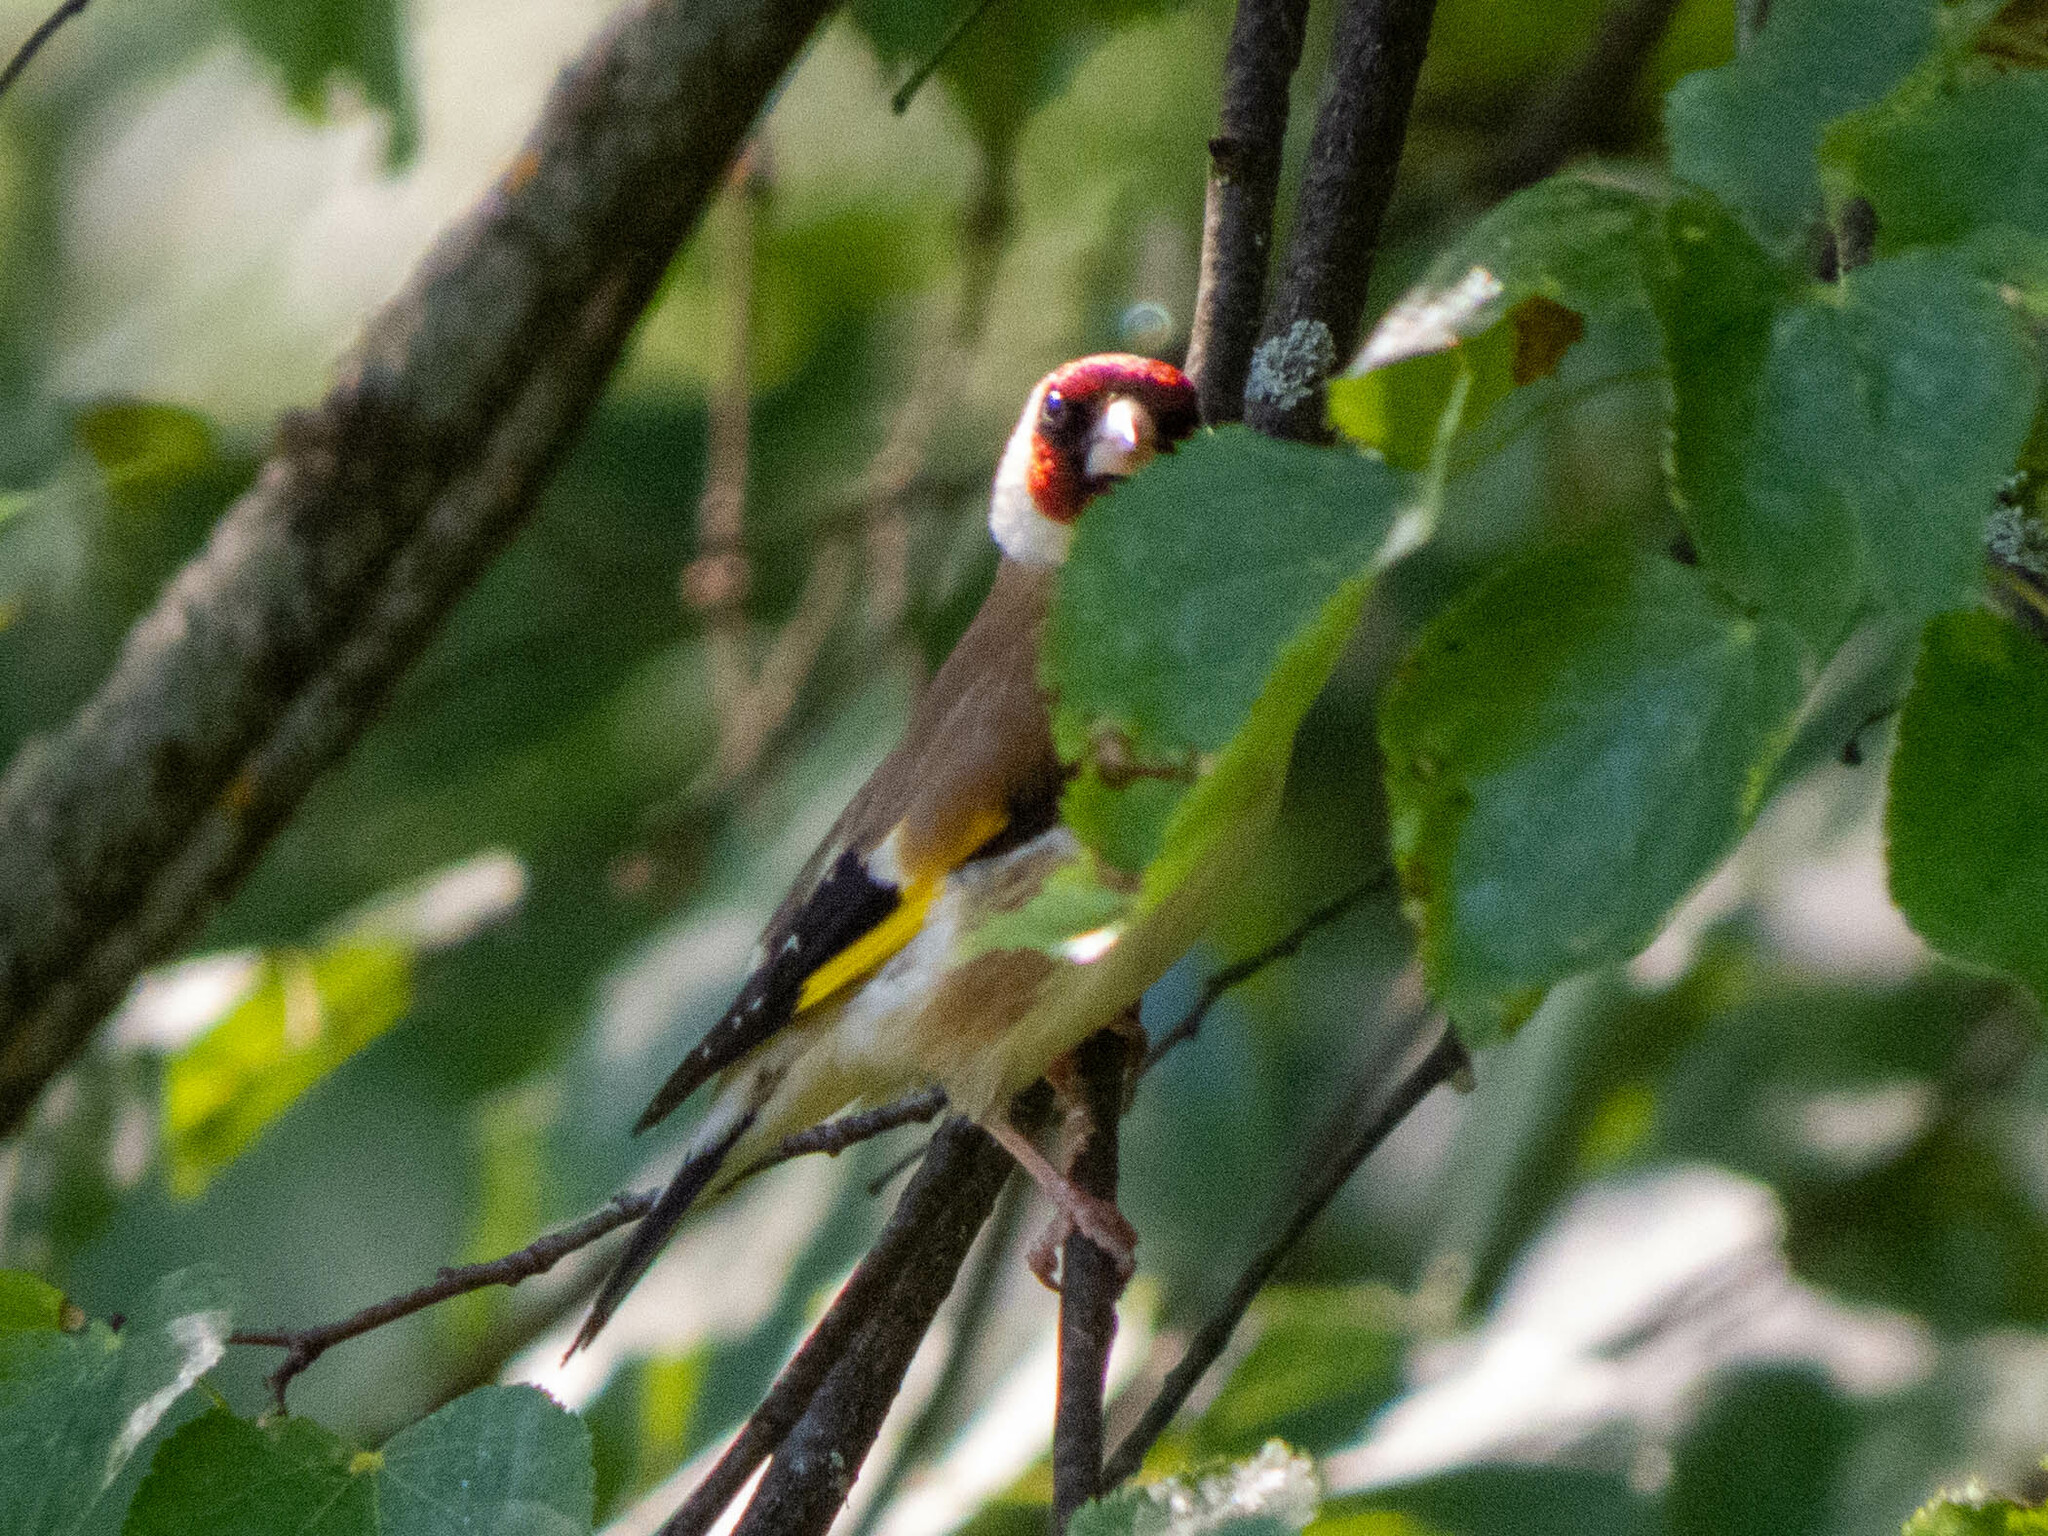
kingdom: Animalia
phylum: Chordata
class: Aves
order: Passeriformes
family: Fringillidae
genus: Carduelis
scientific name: Carduelis carduelis
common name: European goldfinch
